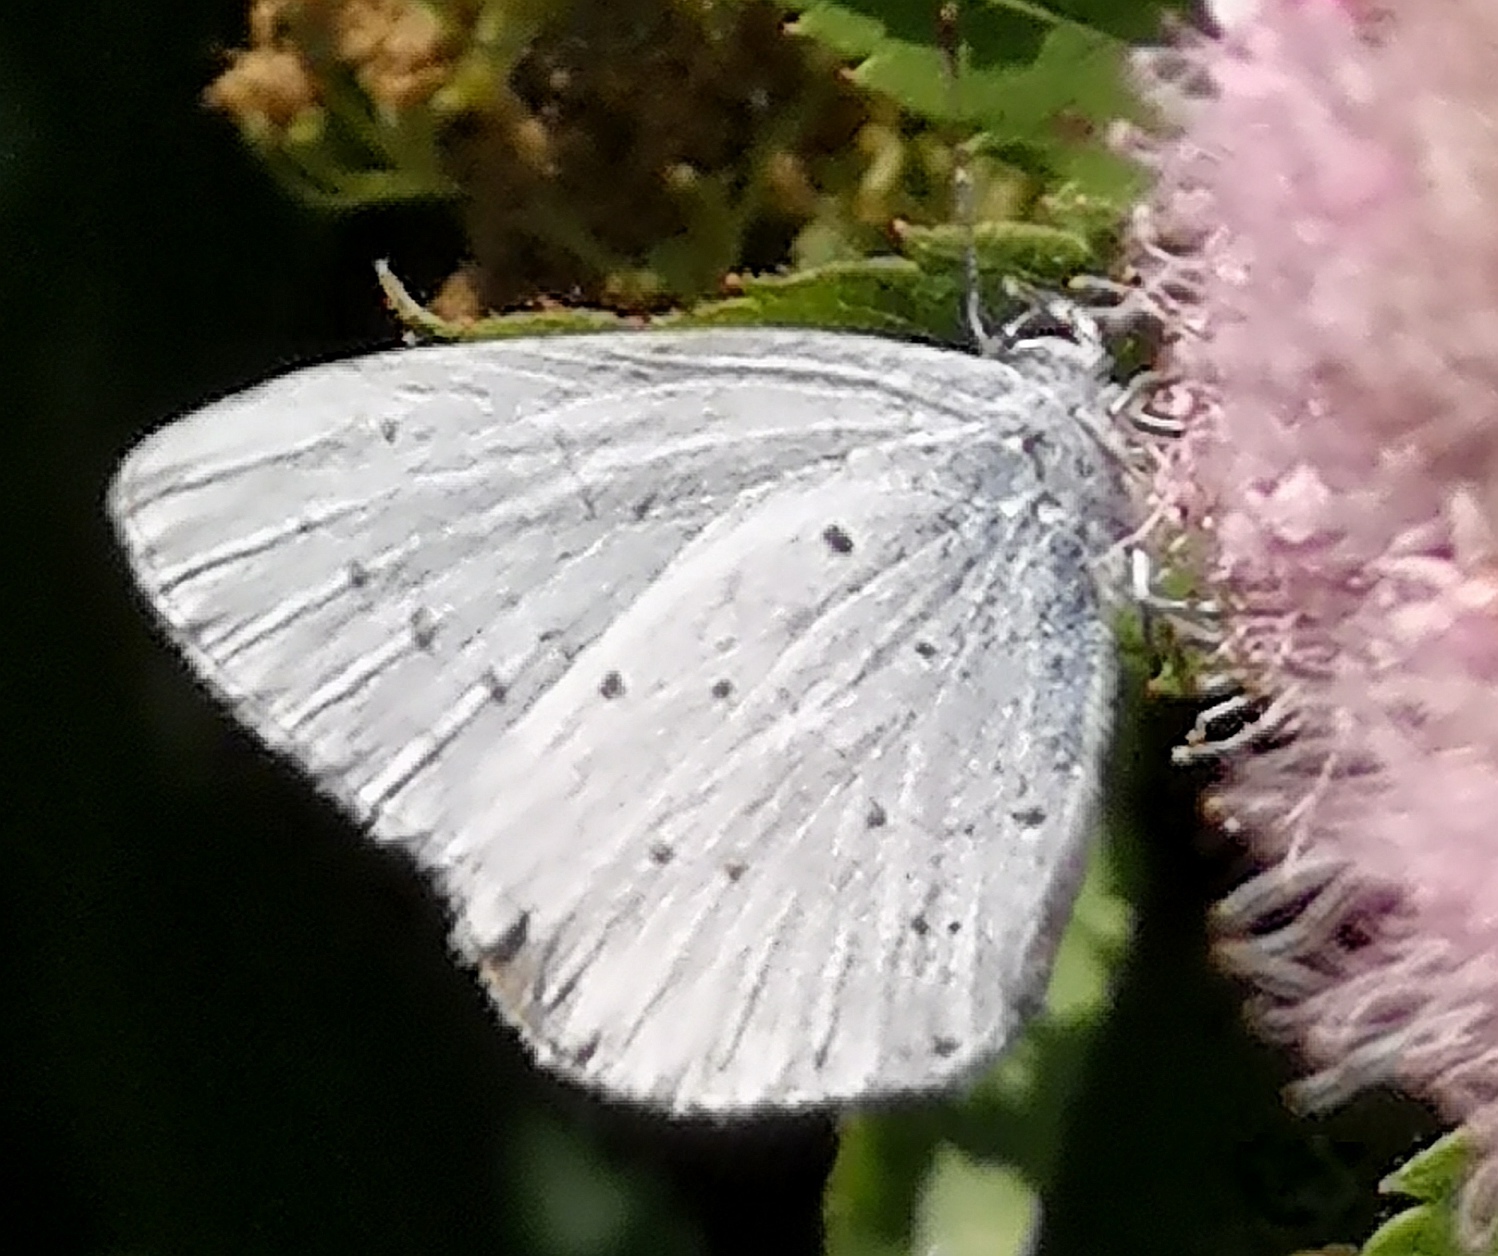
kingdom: Animalia
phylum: Arthropoda
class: Insecta
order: Lepidoptera
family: Lycaenidae
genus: Celastrina
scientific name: Celastrina argiolus
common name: Holly blue
